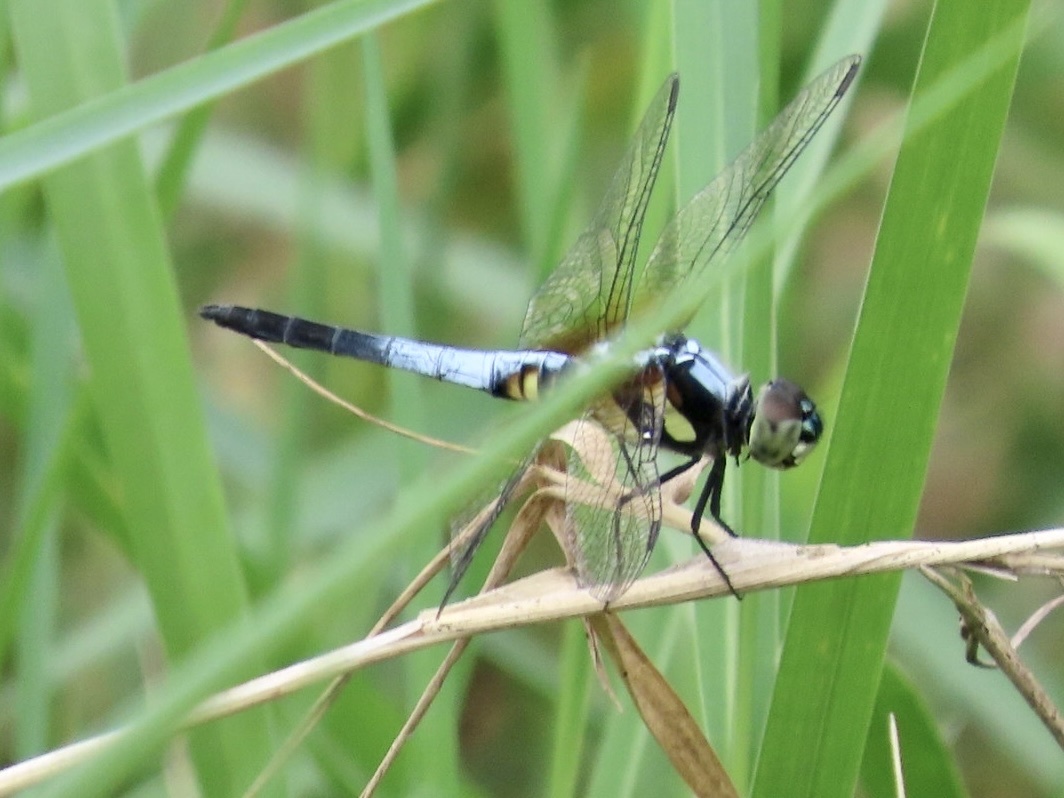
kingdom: Animalia
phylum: Arthropoda
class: Insecta
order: Odonata
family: Libellulidae
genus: Brachydiplax
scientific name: Brachydiplax chalybea
